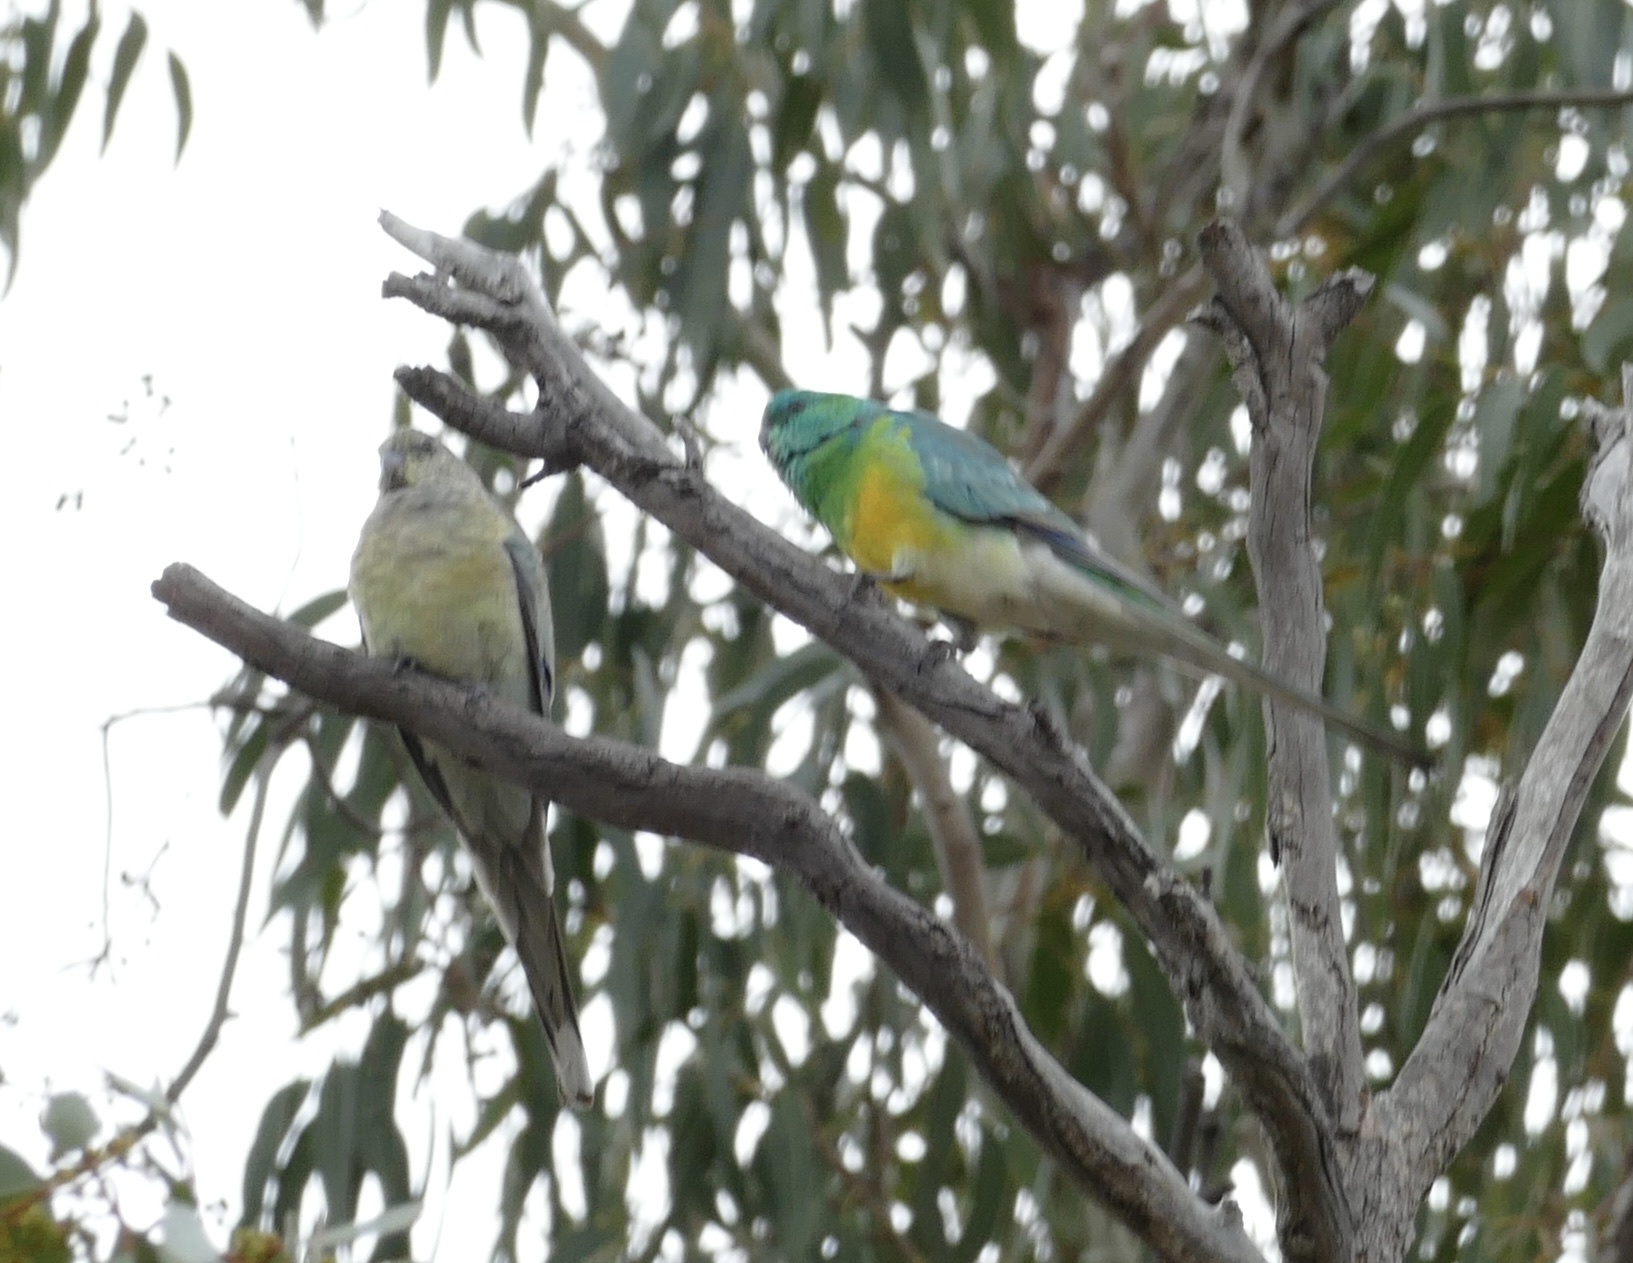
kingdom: Animalia
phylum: Chordata
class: Aves
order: Psittaciformes
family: Psittacidae
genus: Psephotus
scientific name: Psephotus haematonotus
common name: Red-rumped parrot
